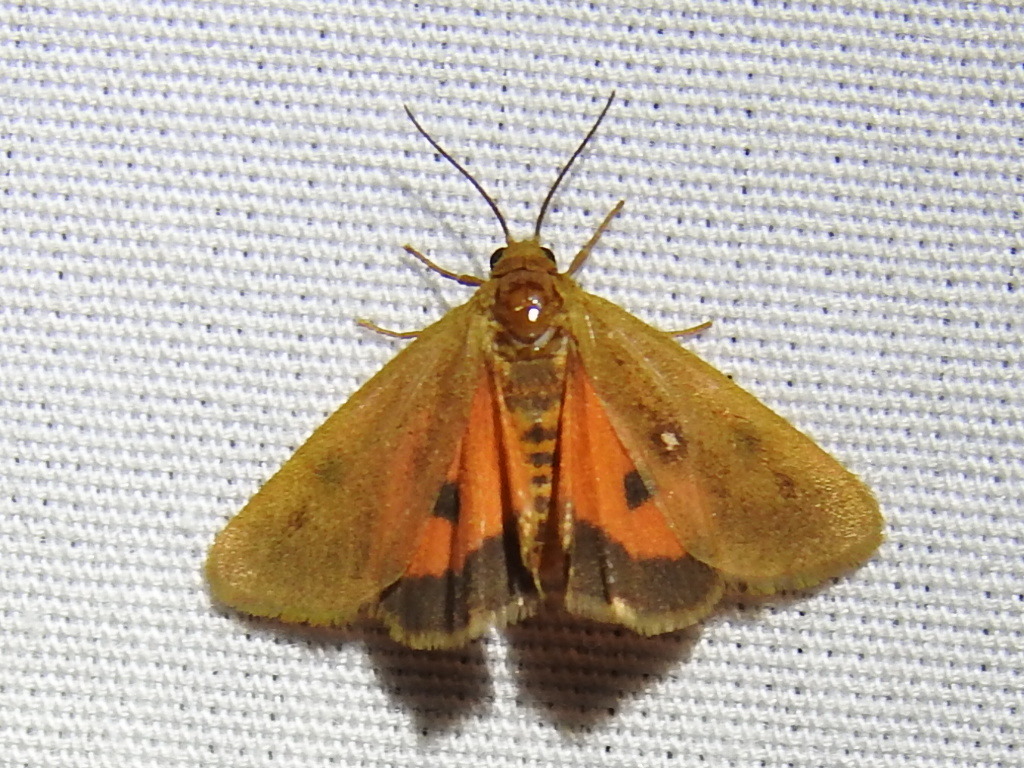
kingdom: Animalia
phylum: Arthropoda
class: Insecta
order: Lepidoptera
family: Erebidae
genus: Virbia
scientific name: Virbia aurantiaca
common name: Orange virbia moth
